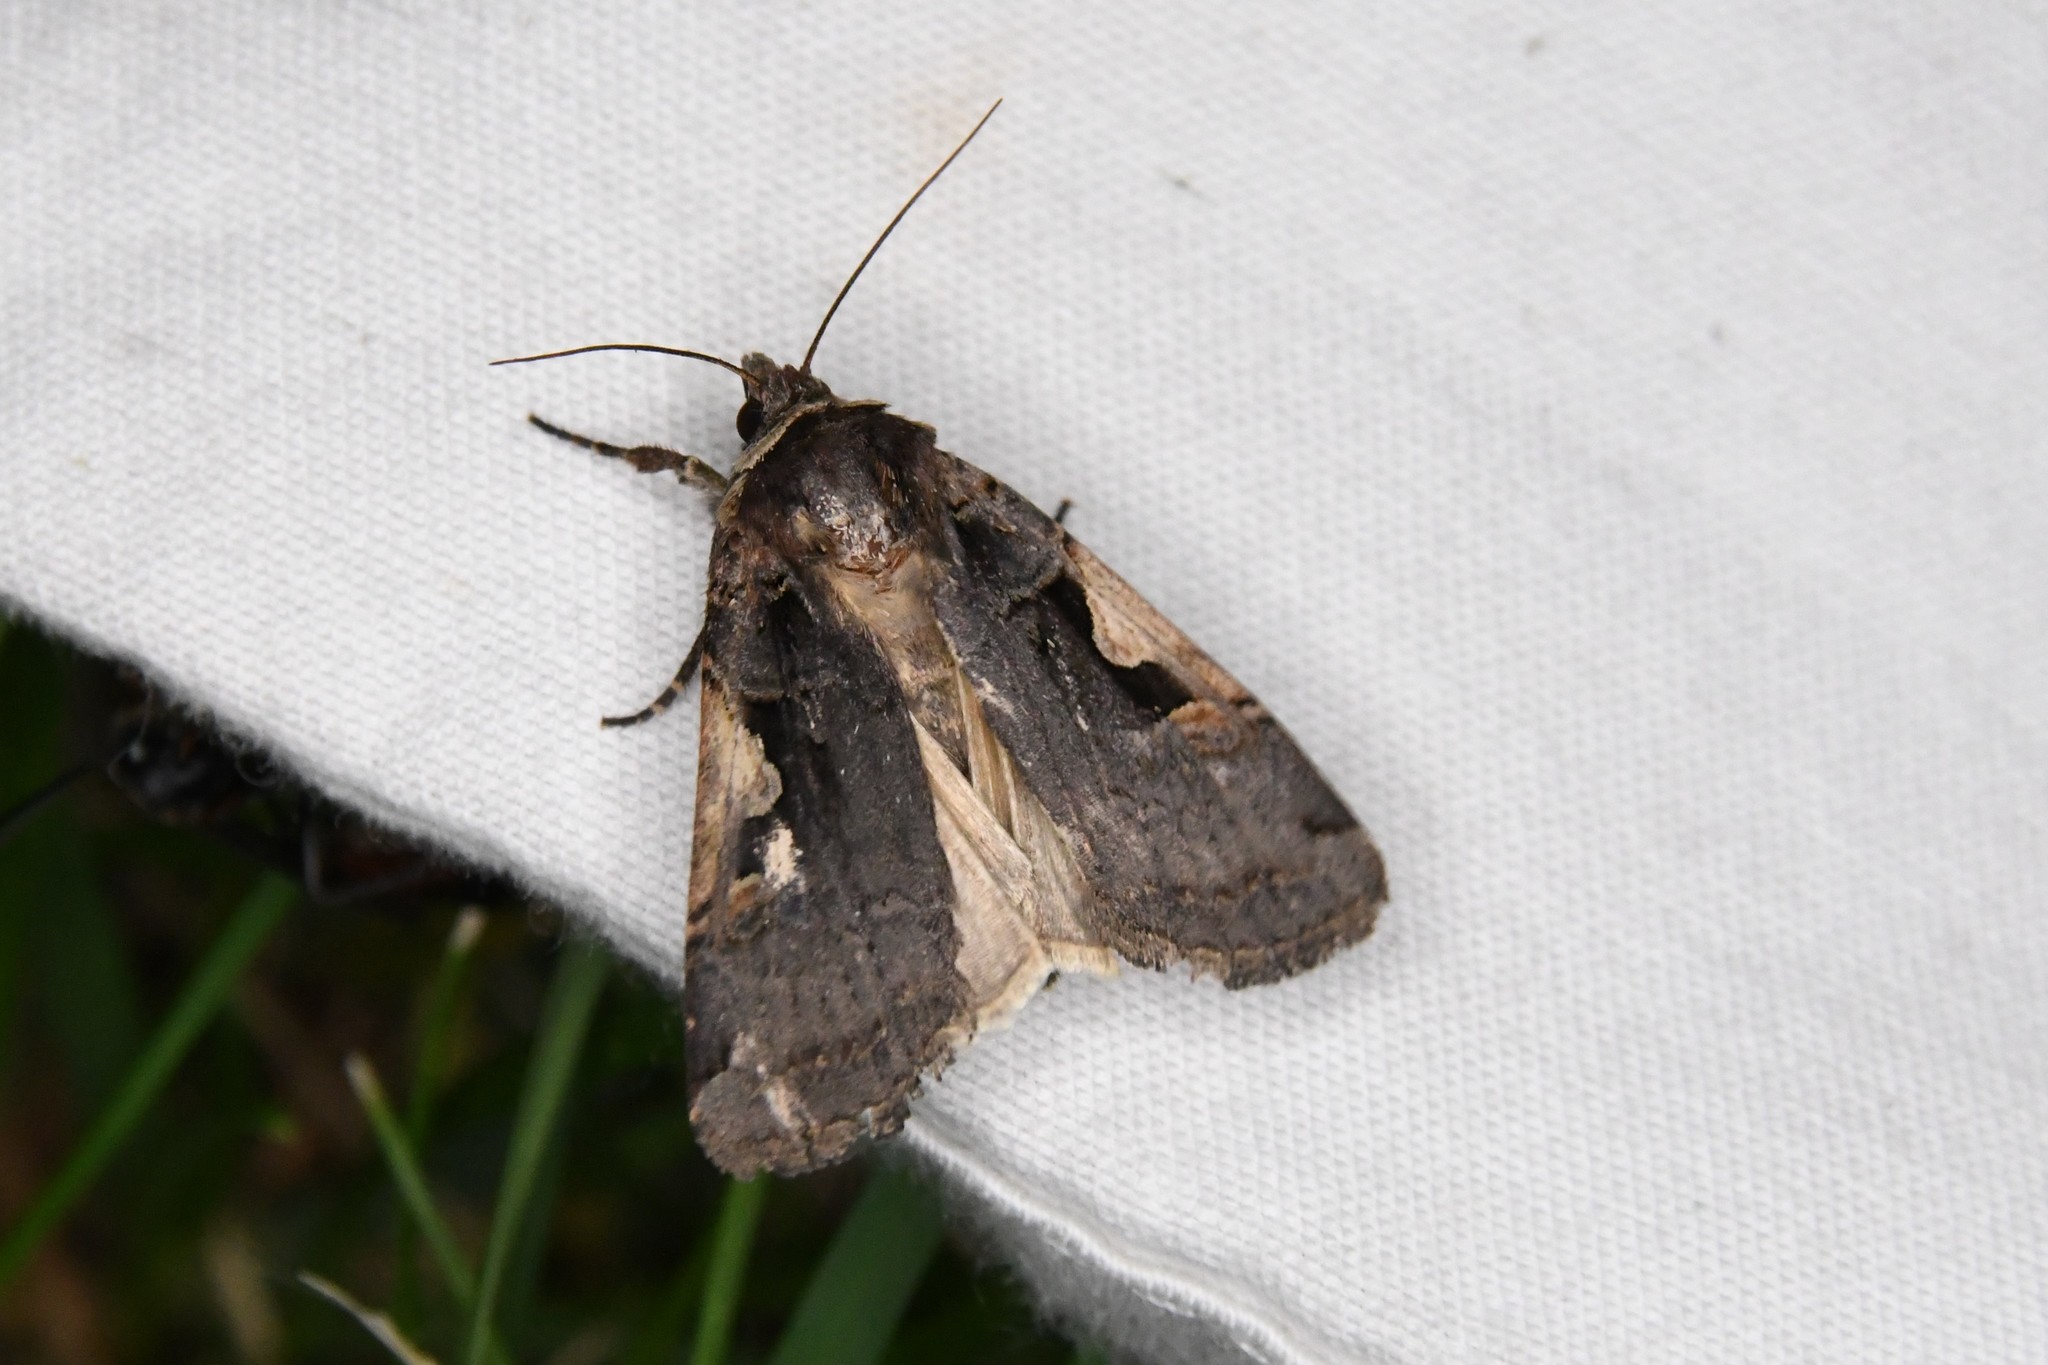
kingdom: Animalia
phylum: Arthropoda
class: Insecta
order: Lepidoptera
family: Noctuidae
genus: Xestia
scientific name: Xestia
